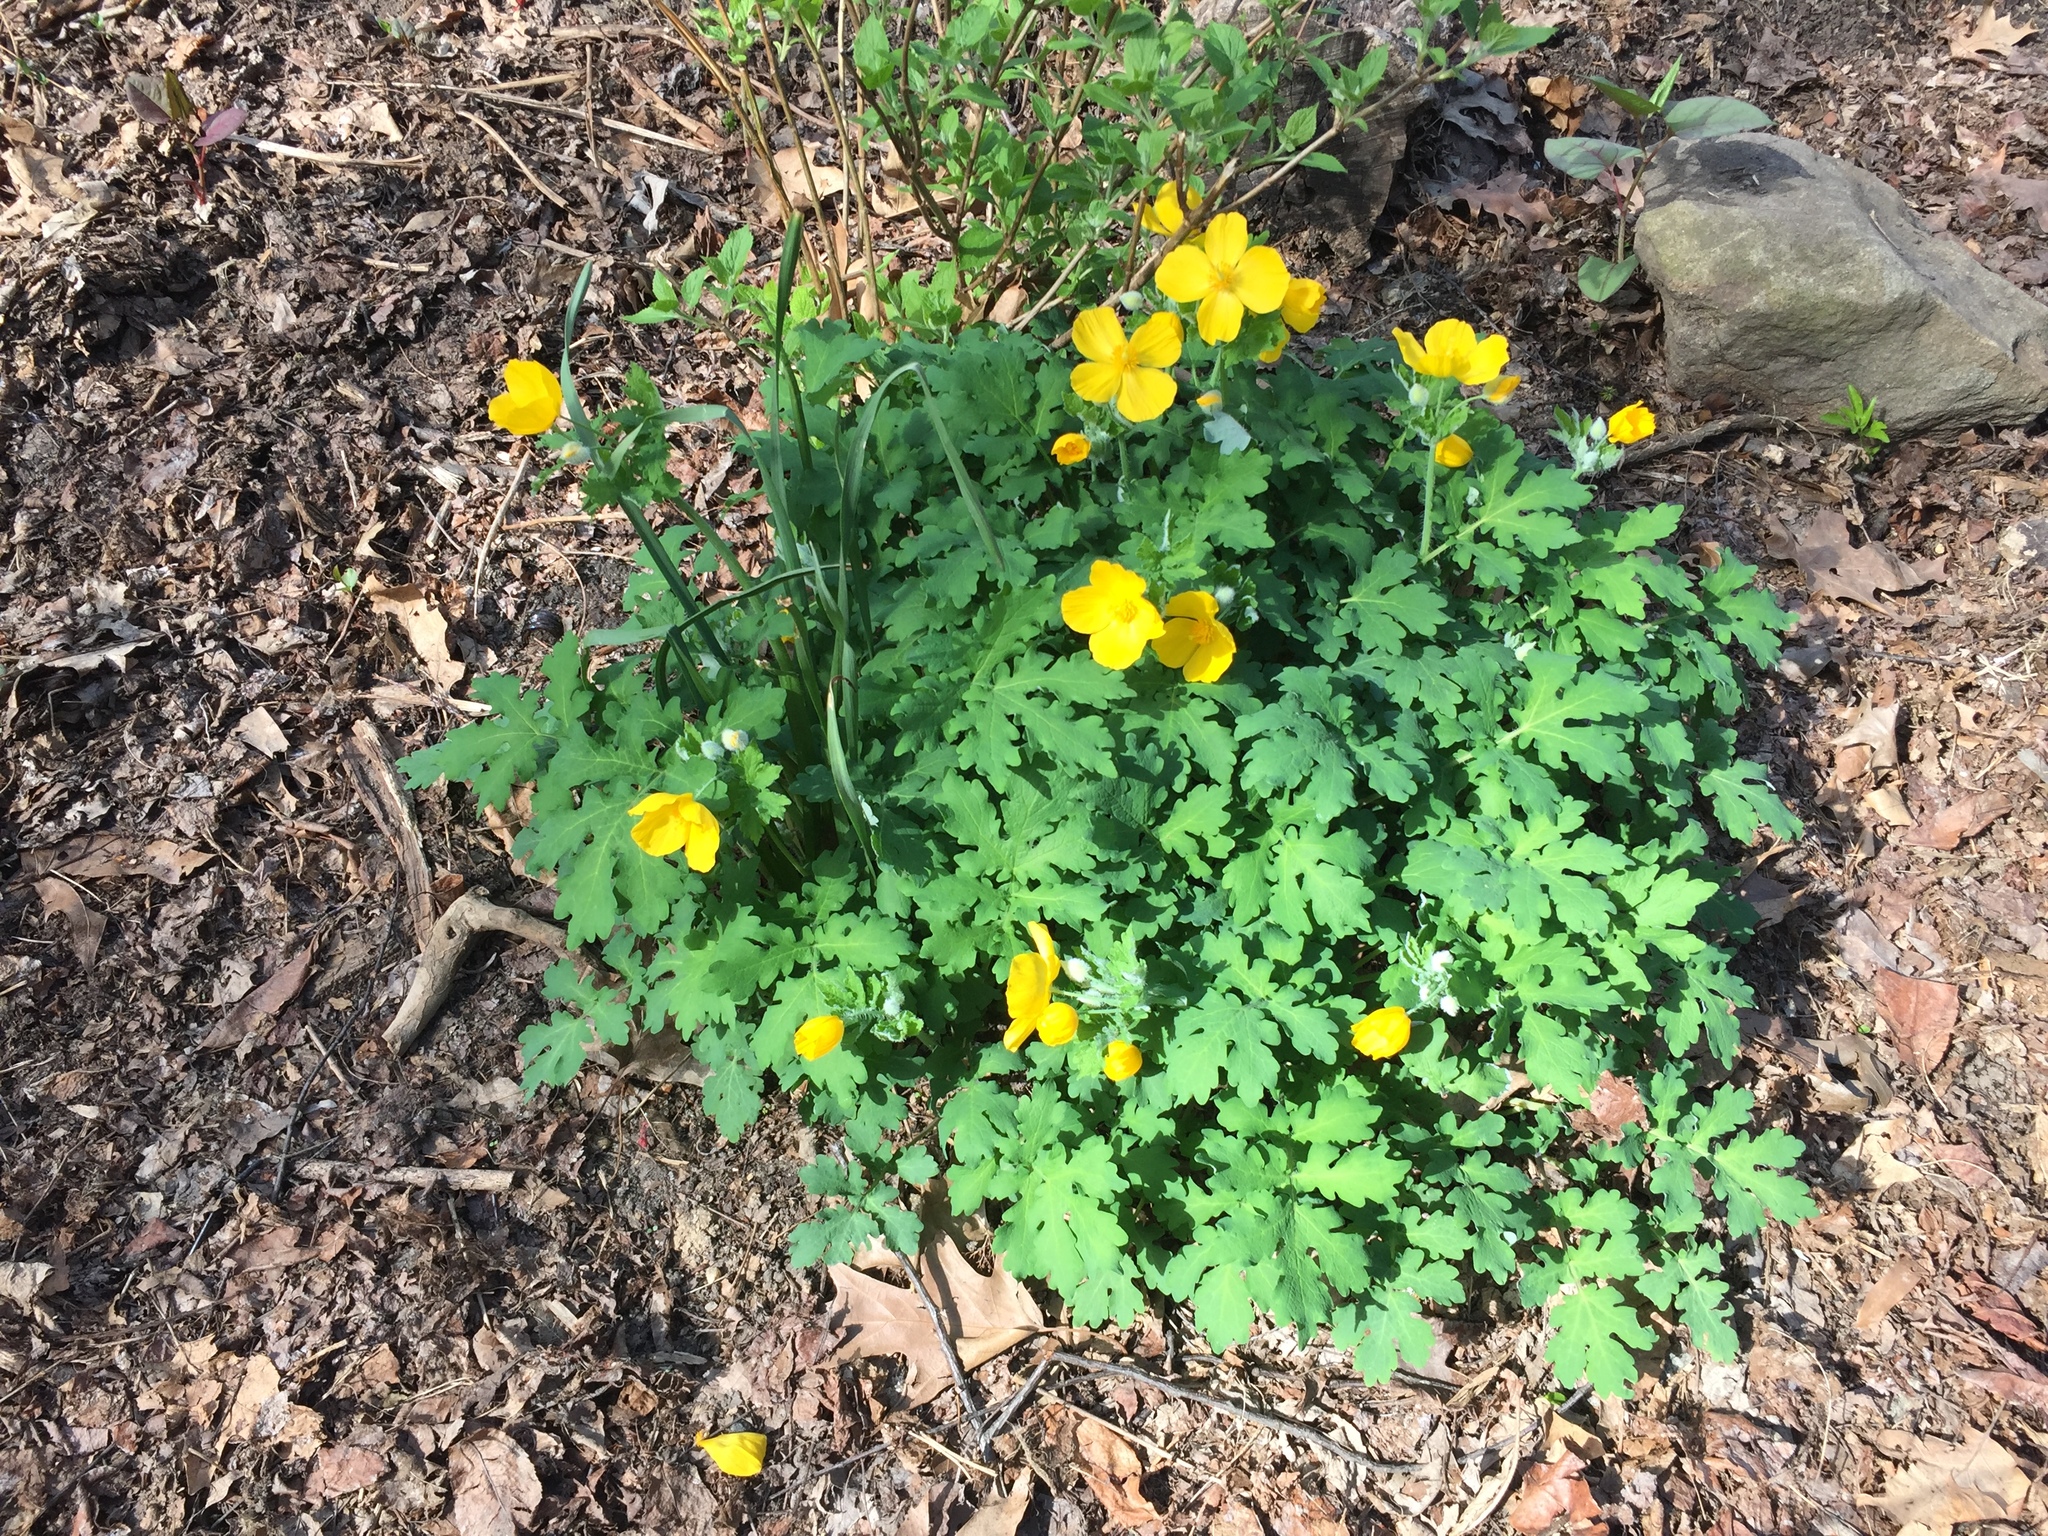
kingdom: Plantae
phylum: Tracheophyta
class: Magnoliopsida
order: Ranunculales
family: Papaveraceae
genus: Stylophorum
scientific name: Stylophorum diphyllum
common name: Celandine poppy
